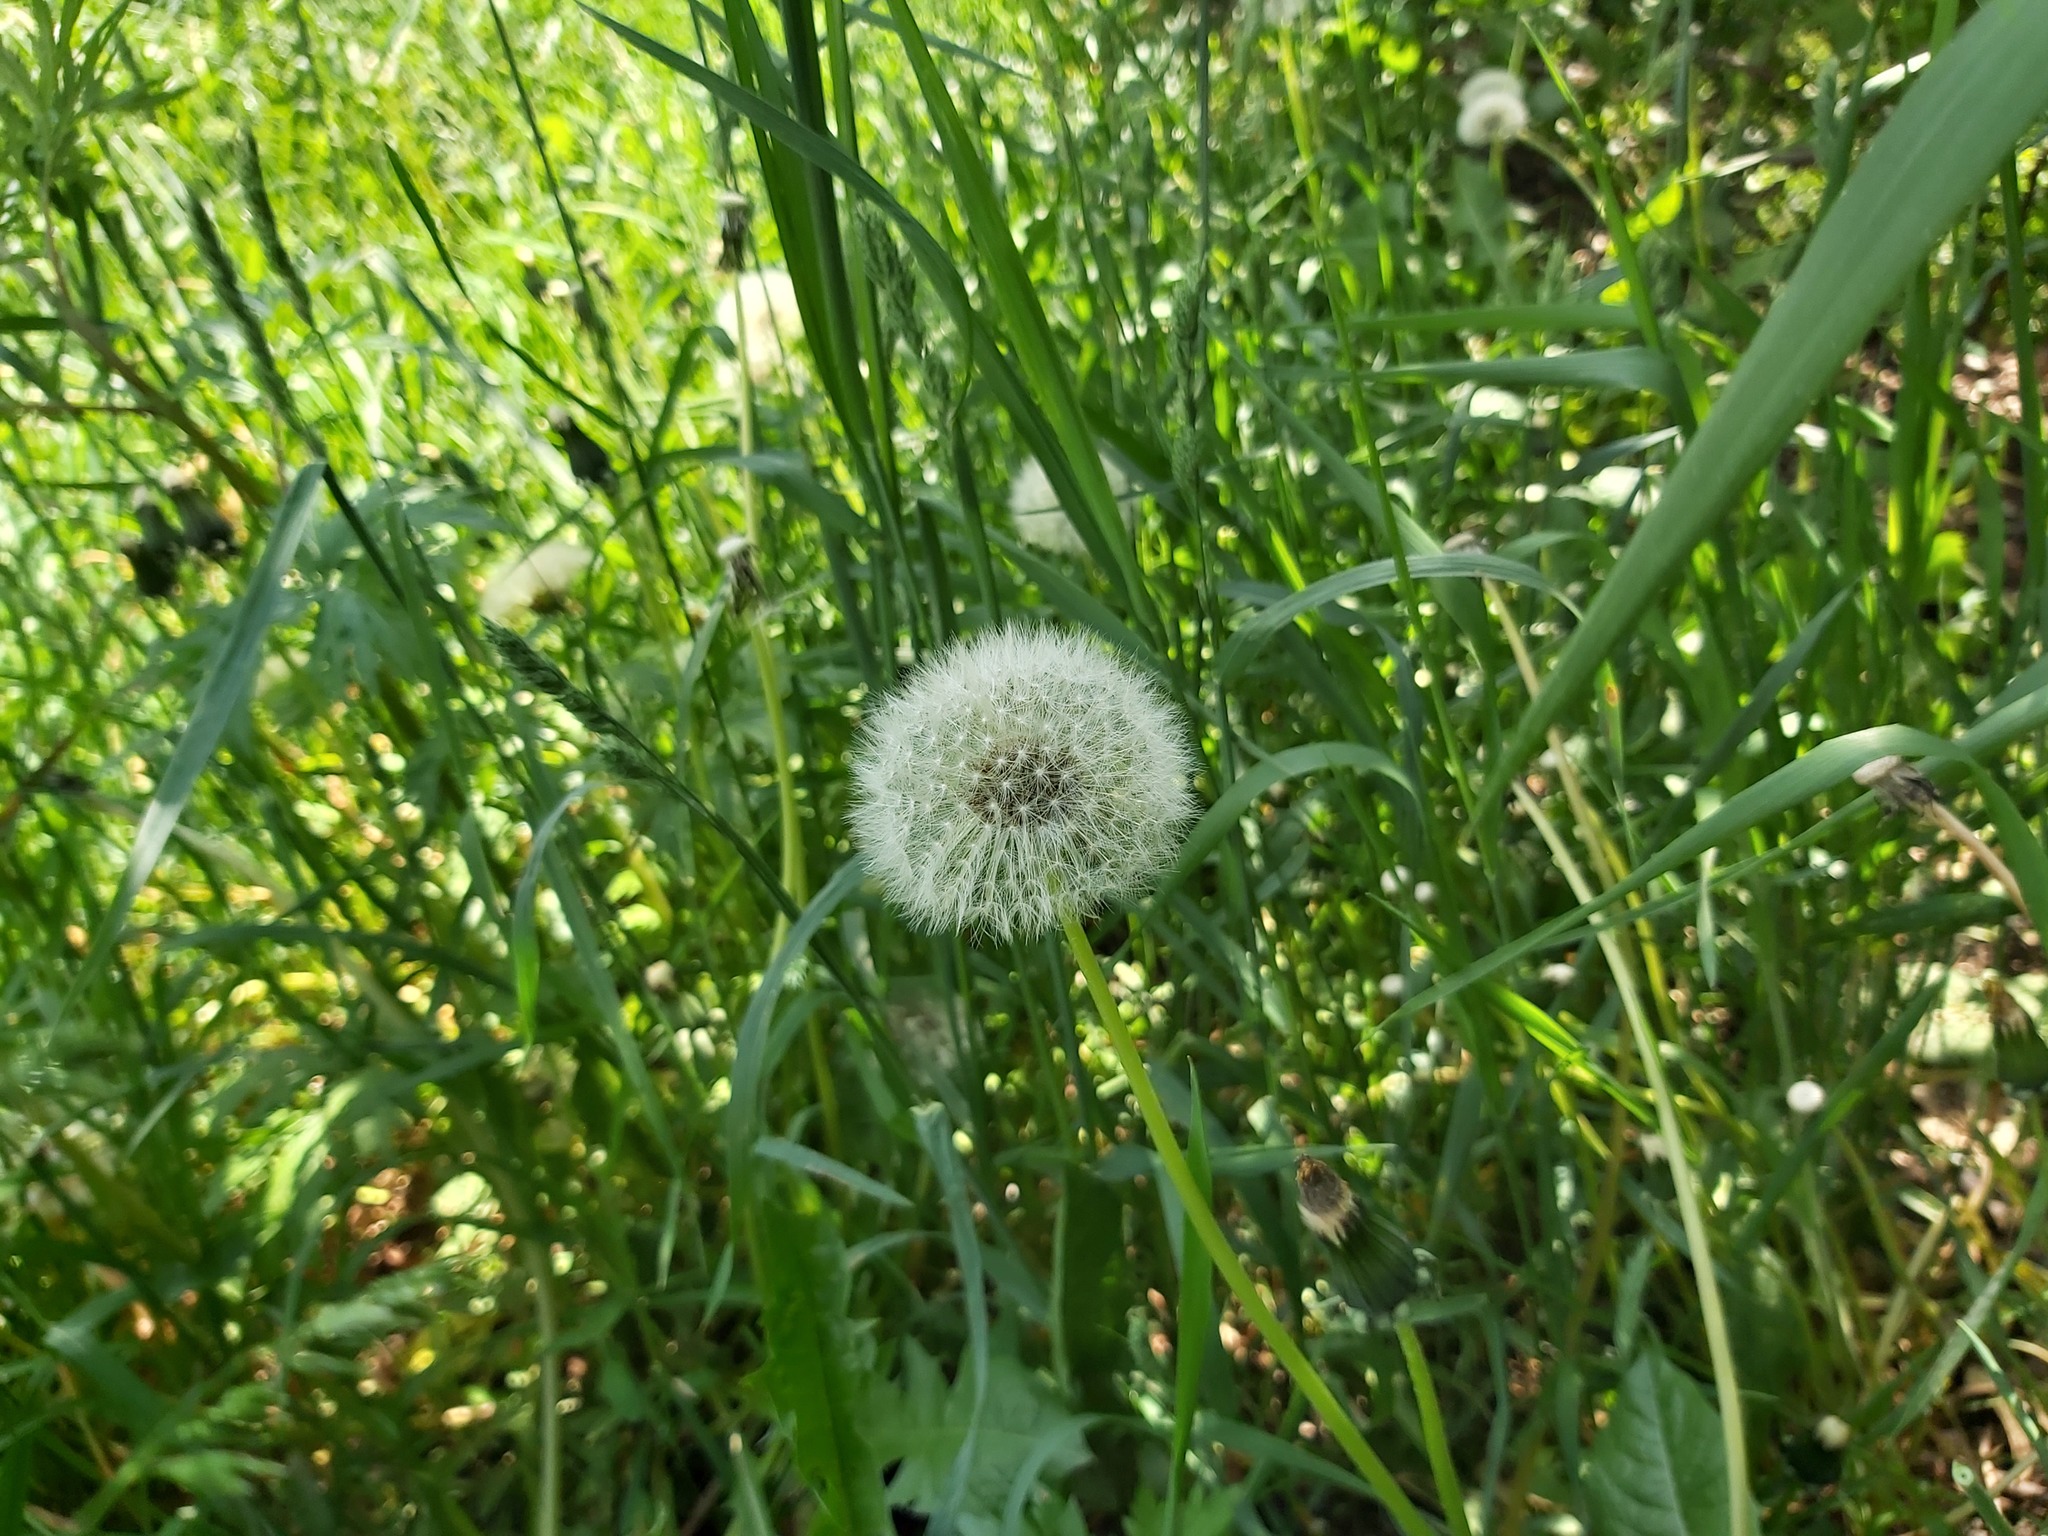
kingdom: Plantae
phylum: Tracheophyta
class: Magnoliopsida
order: Asterales
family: Asteraceae
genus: Taraxacum
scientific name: Taraxacum officinale
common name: Common dandelion
